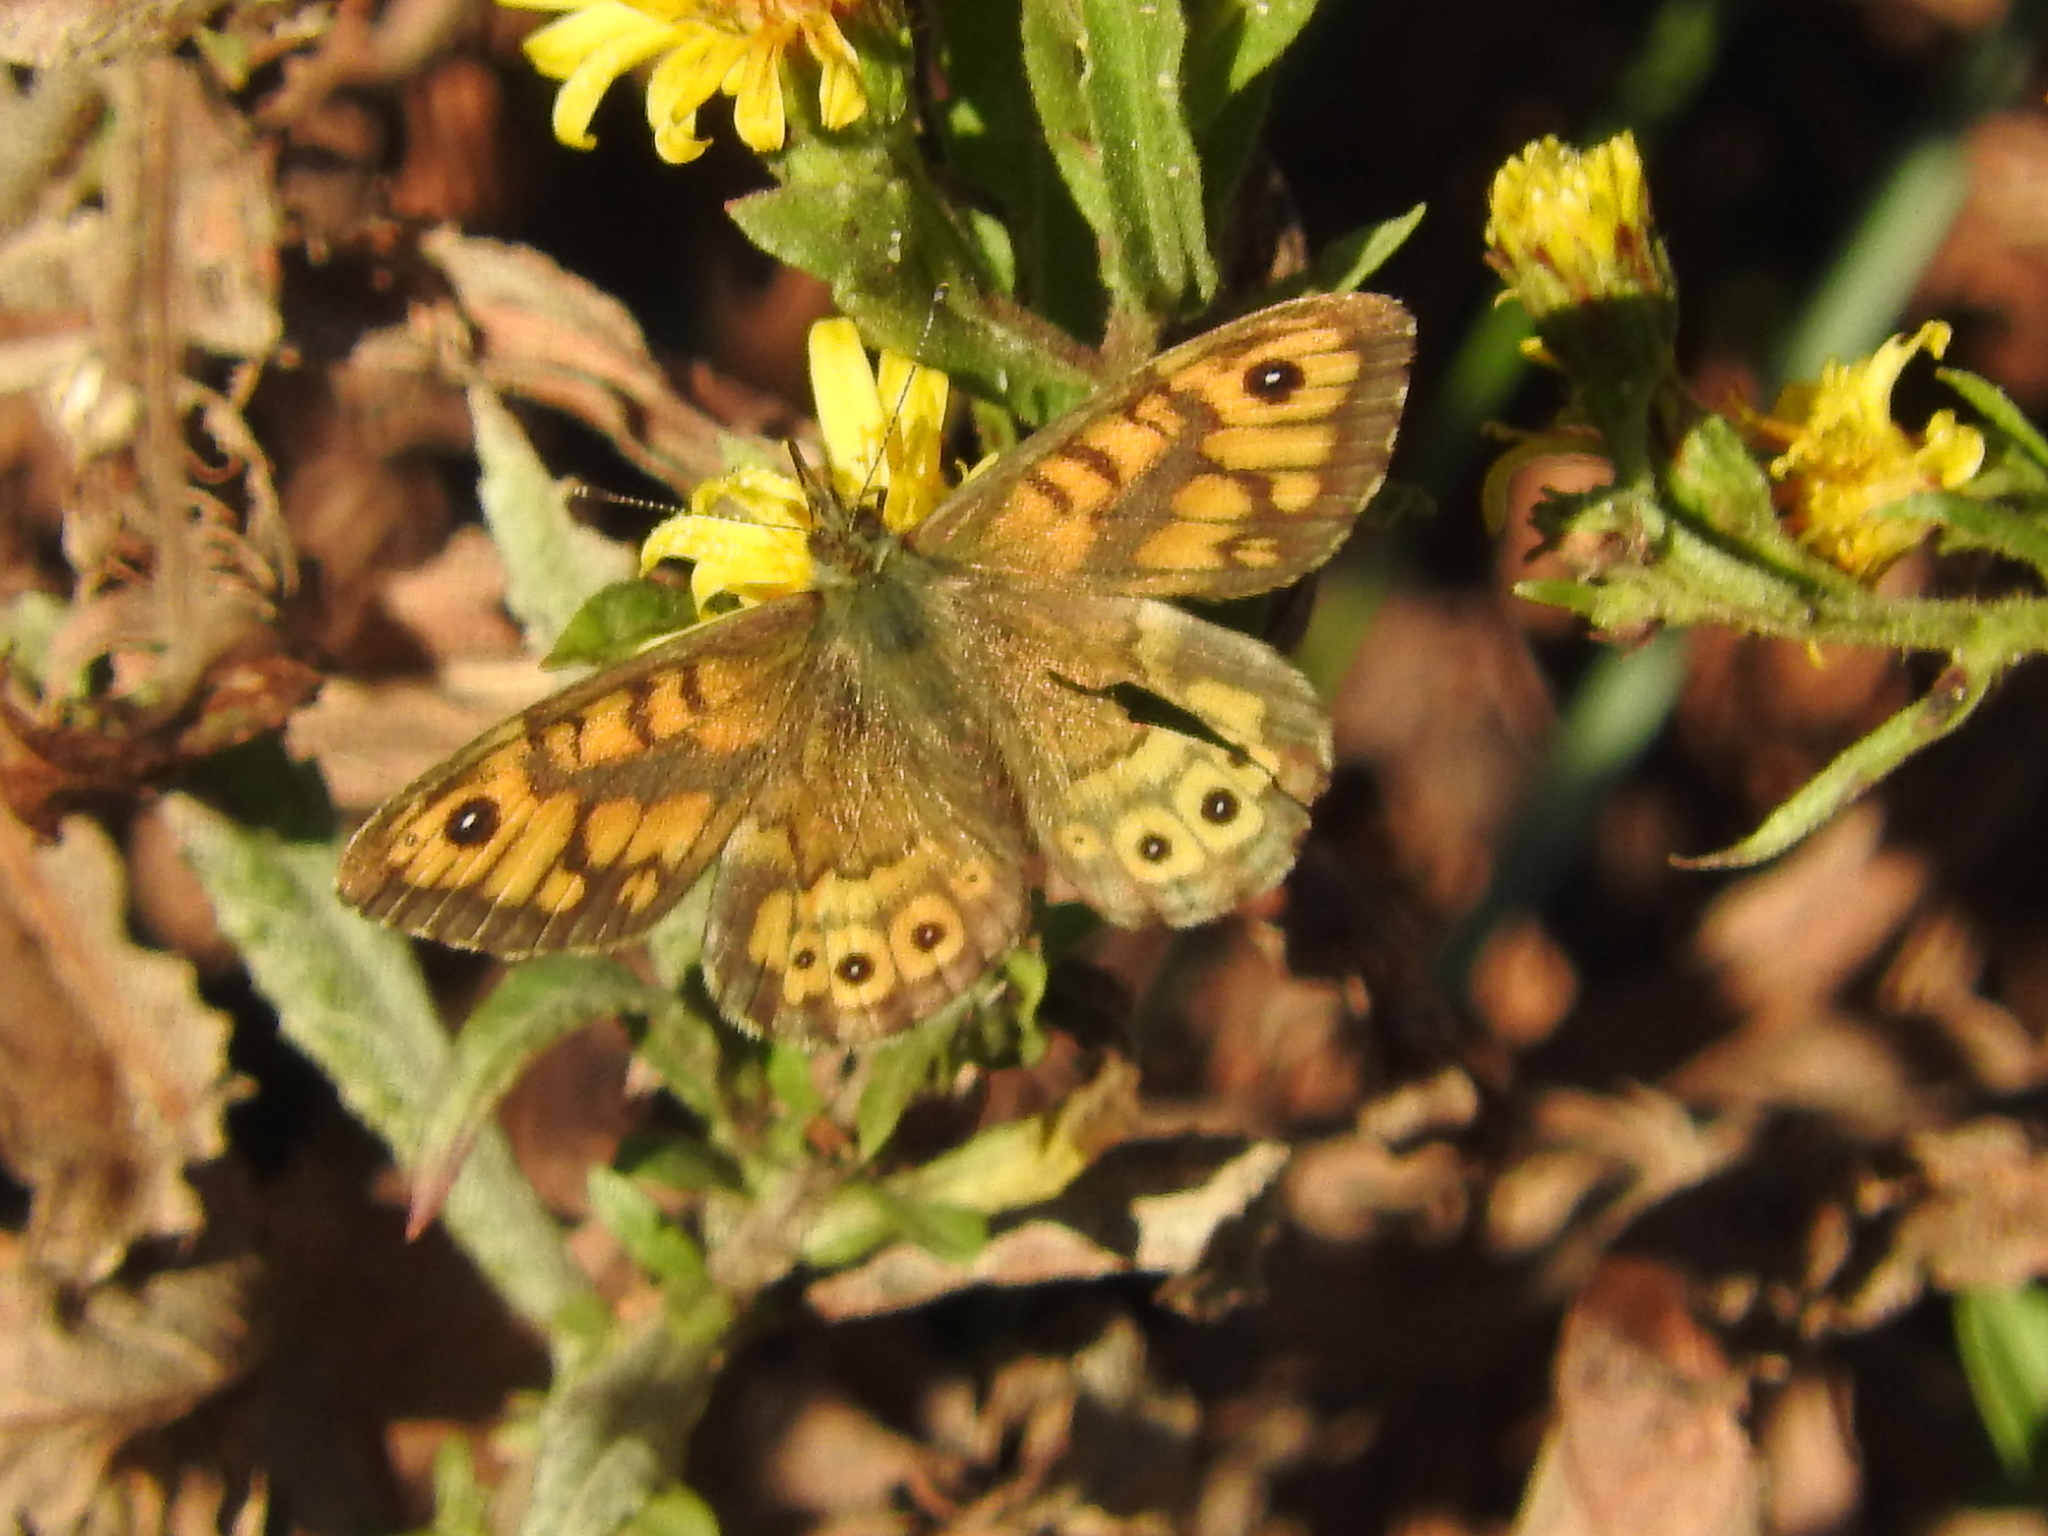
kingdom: Animalia
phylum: Arthropoda
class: Insecta
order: Lepidoptera
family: Nymphalidae
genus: Pararge
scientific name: Pararge Lasiommata megera
